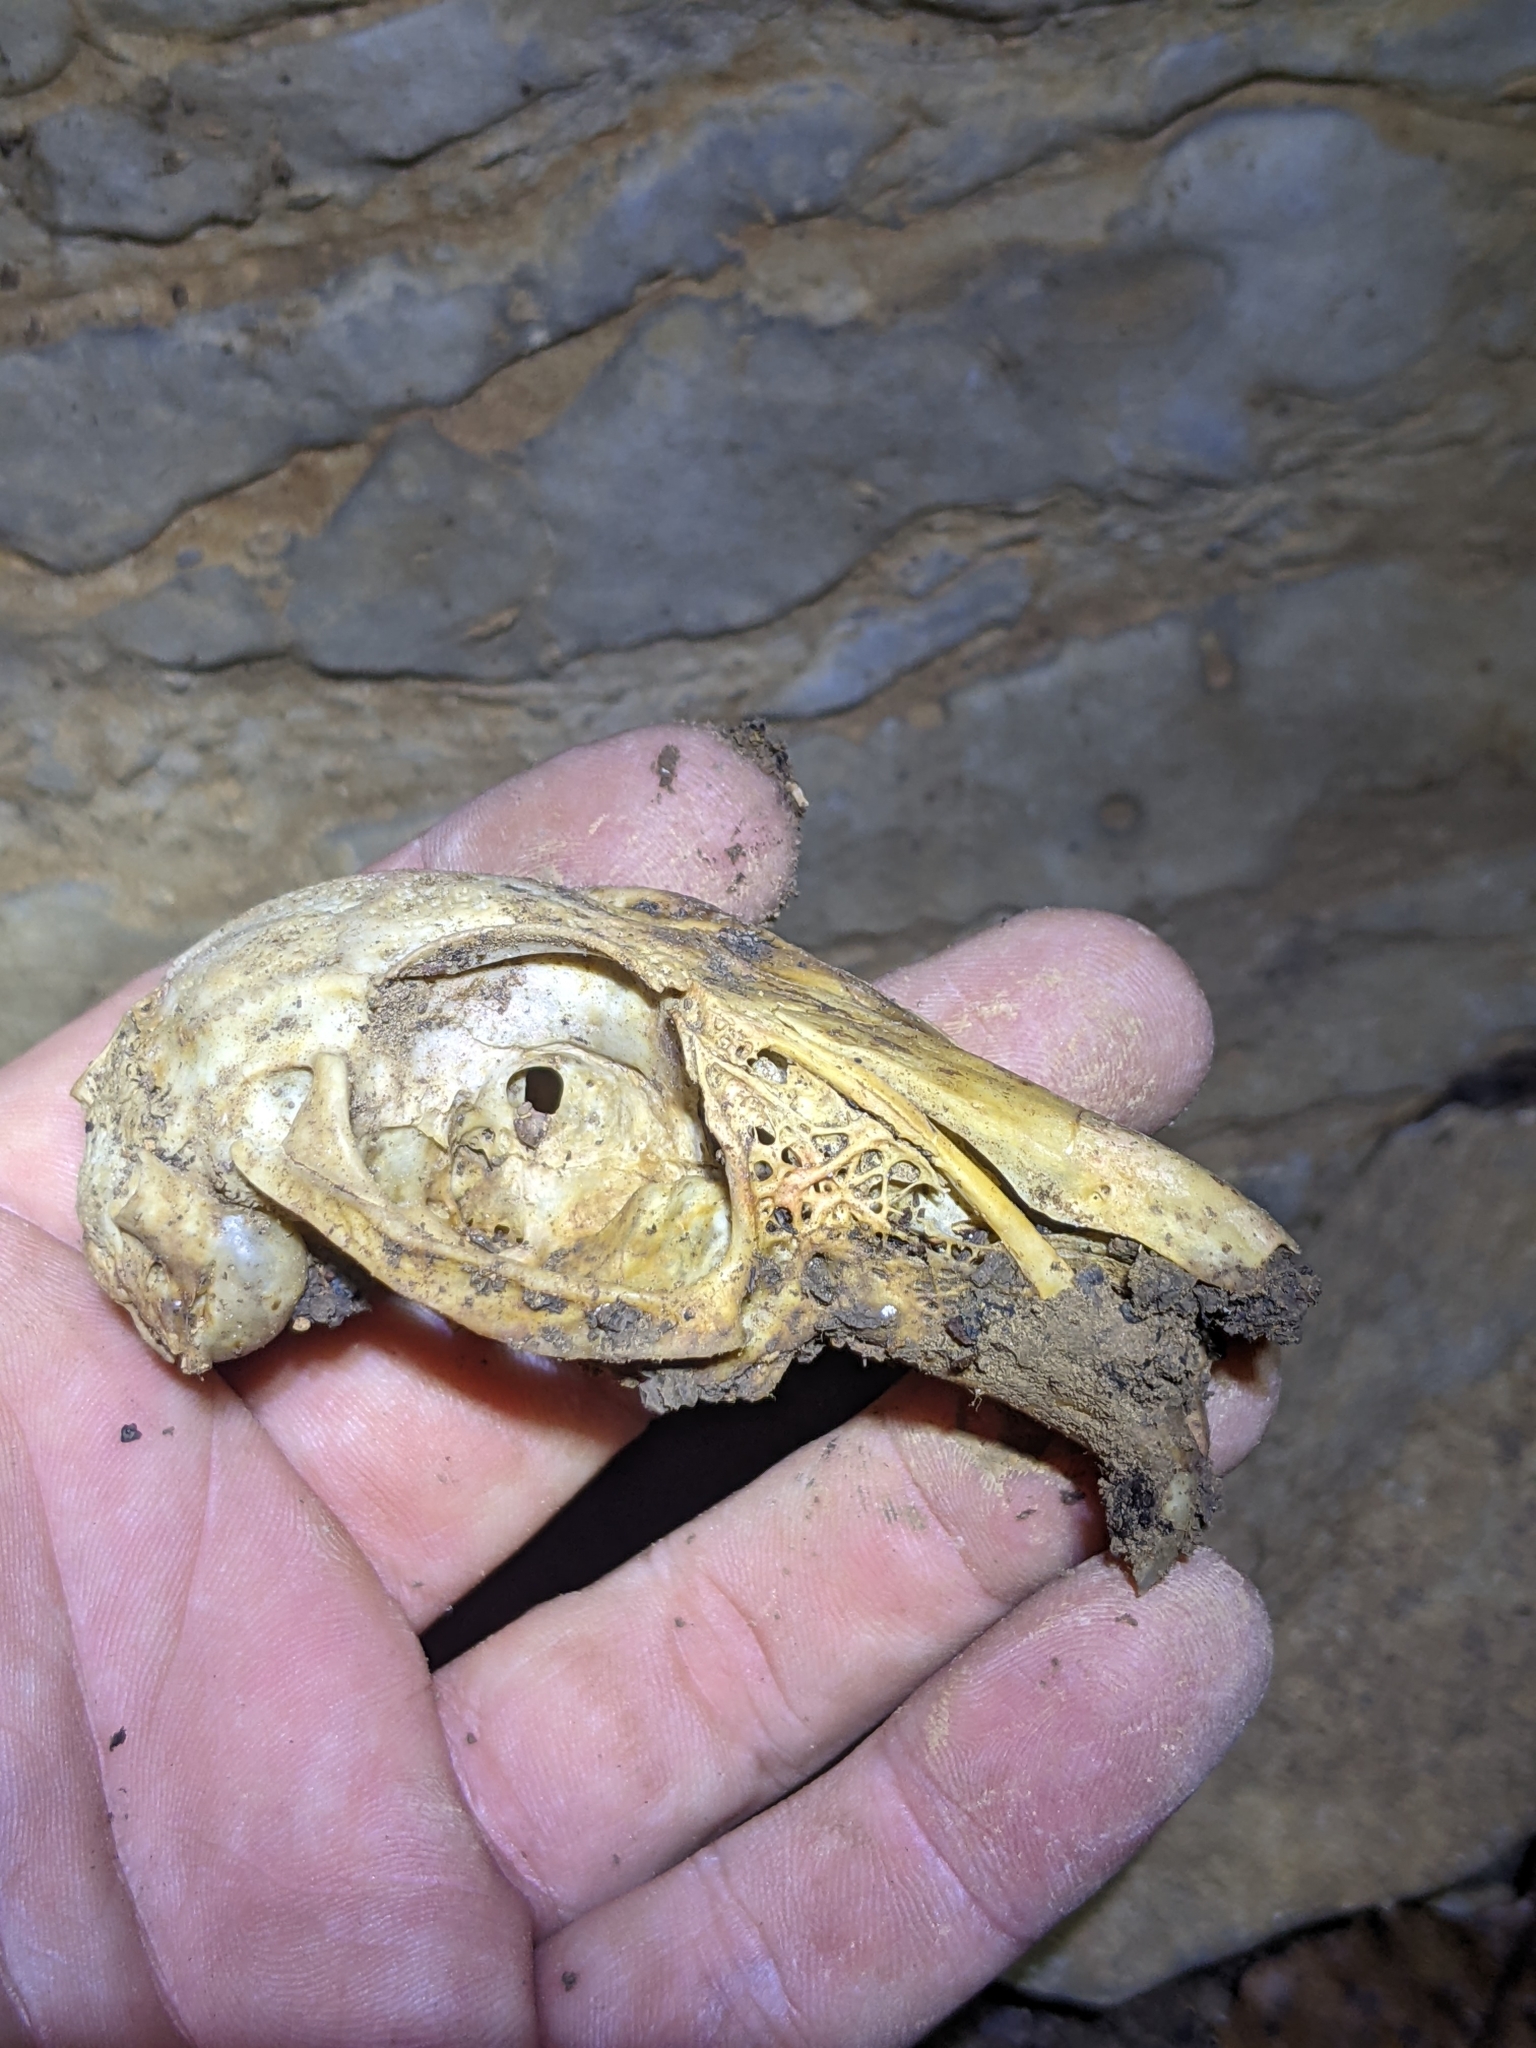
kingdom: Animalia
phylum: Chordata
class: Mammalia
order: Lagomorpha
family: Leporidae
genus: Sylvilagus
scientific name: Sylvilagus obscurus
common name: Appalachian cottontail
